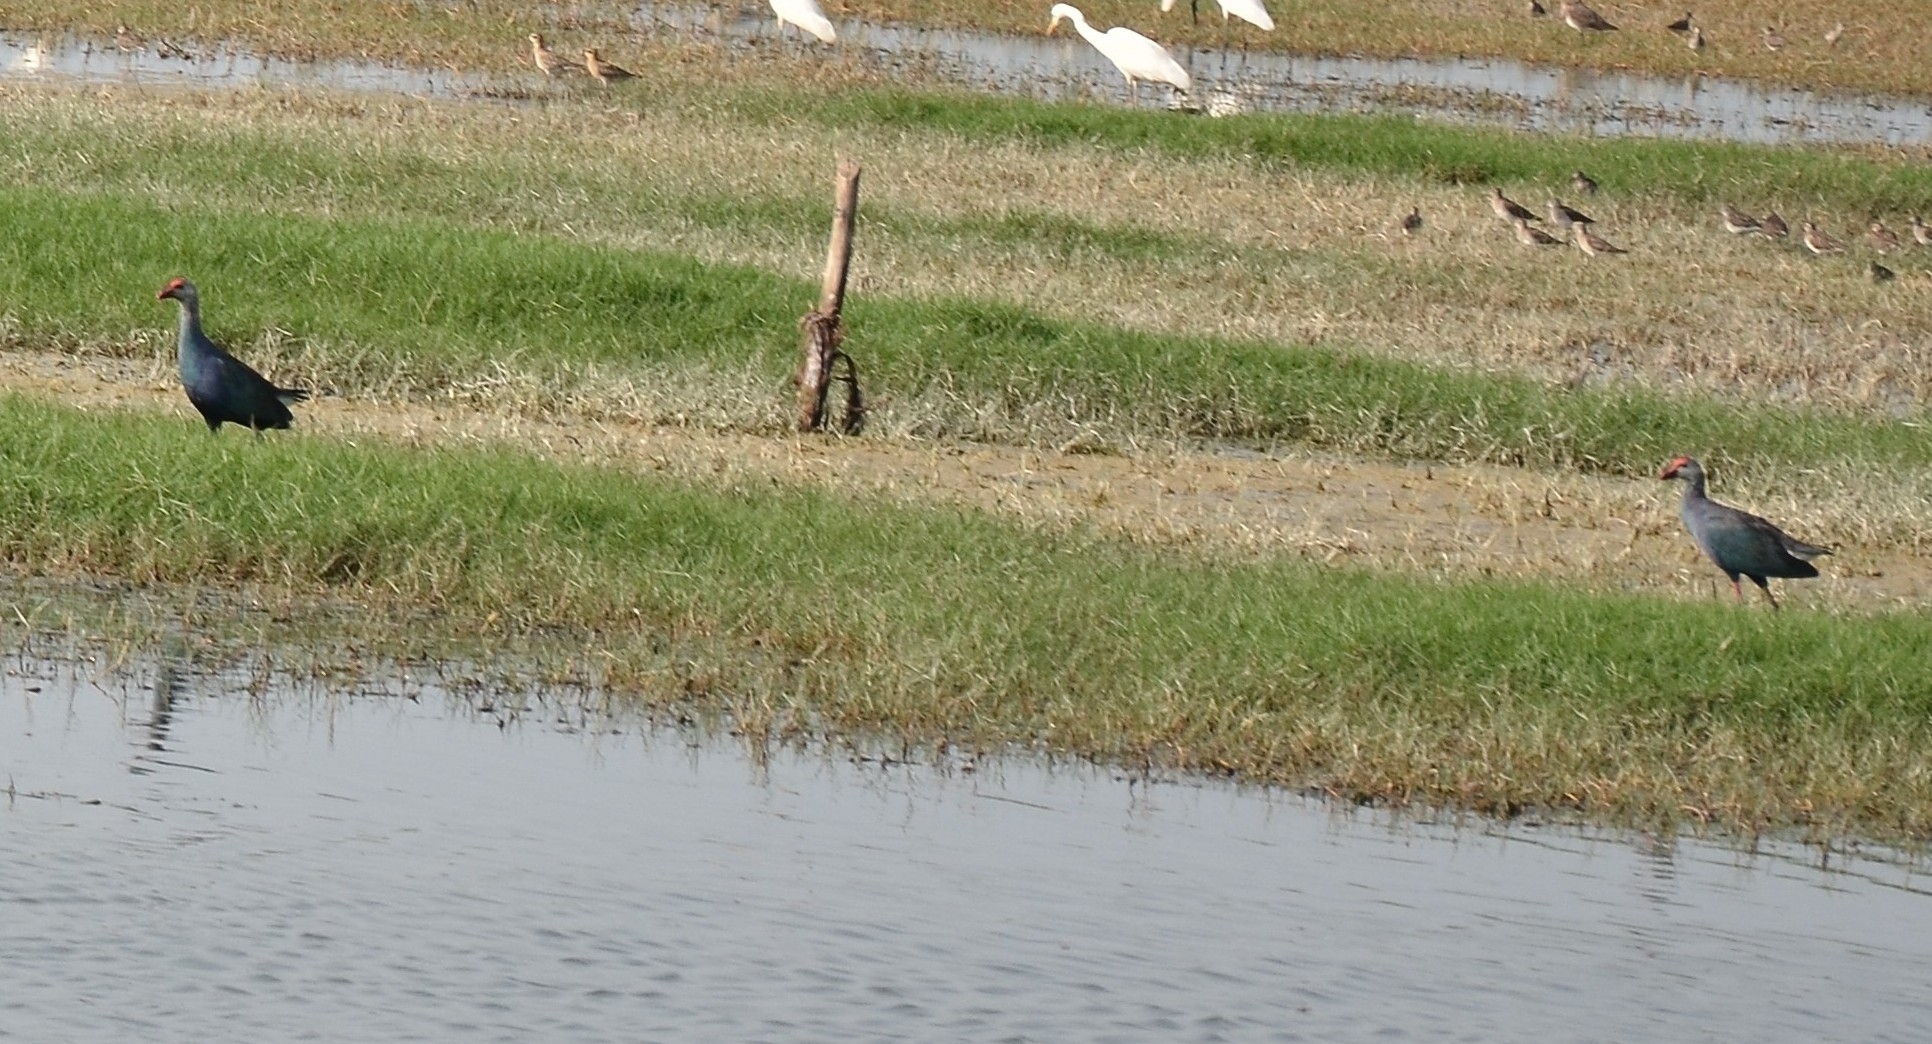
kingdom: Animalia
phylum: Chordata
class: Aves
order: Gruiformes
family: Rallidae
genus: Porphyrio
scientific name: Porphyrio porphyrio
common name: Purple swamphen
